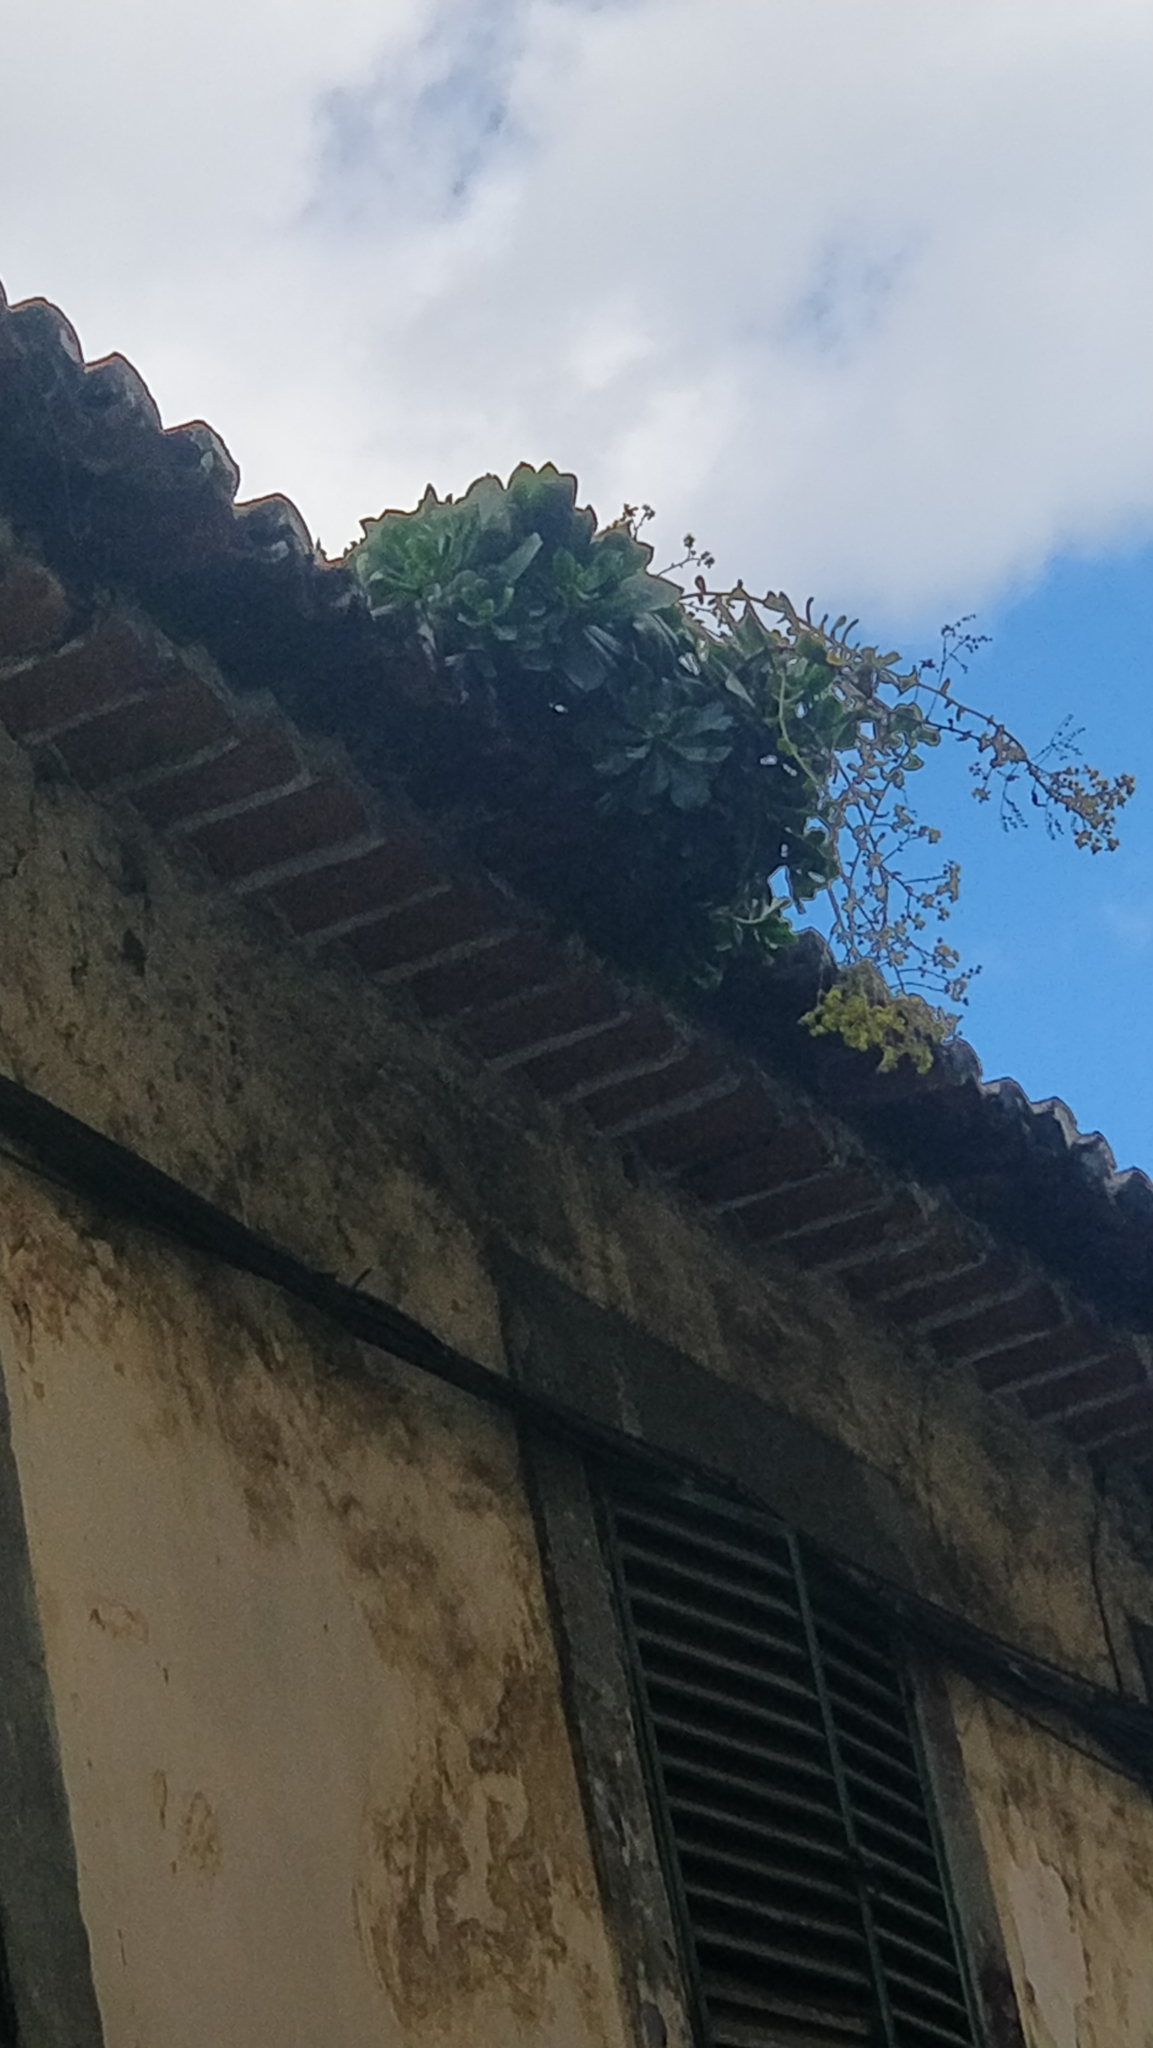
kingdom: Plantae
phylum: Tracheophyta
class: Magnoliopsida
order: Saxifragales
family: Crassulaceae
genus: Aeonium
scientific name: Aeonium glutinosum
